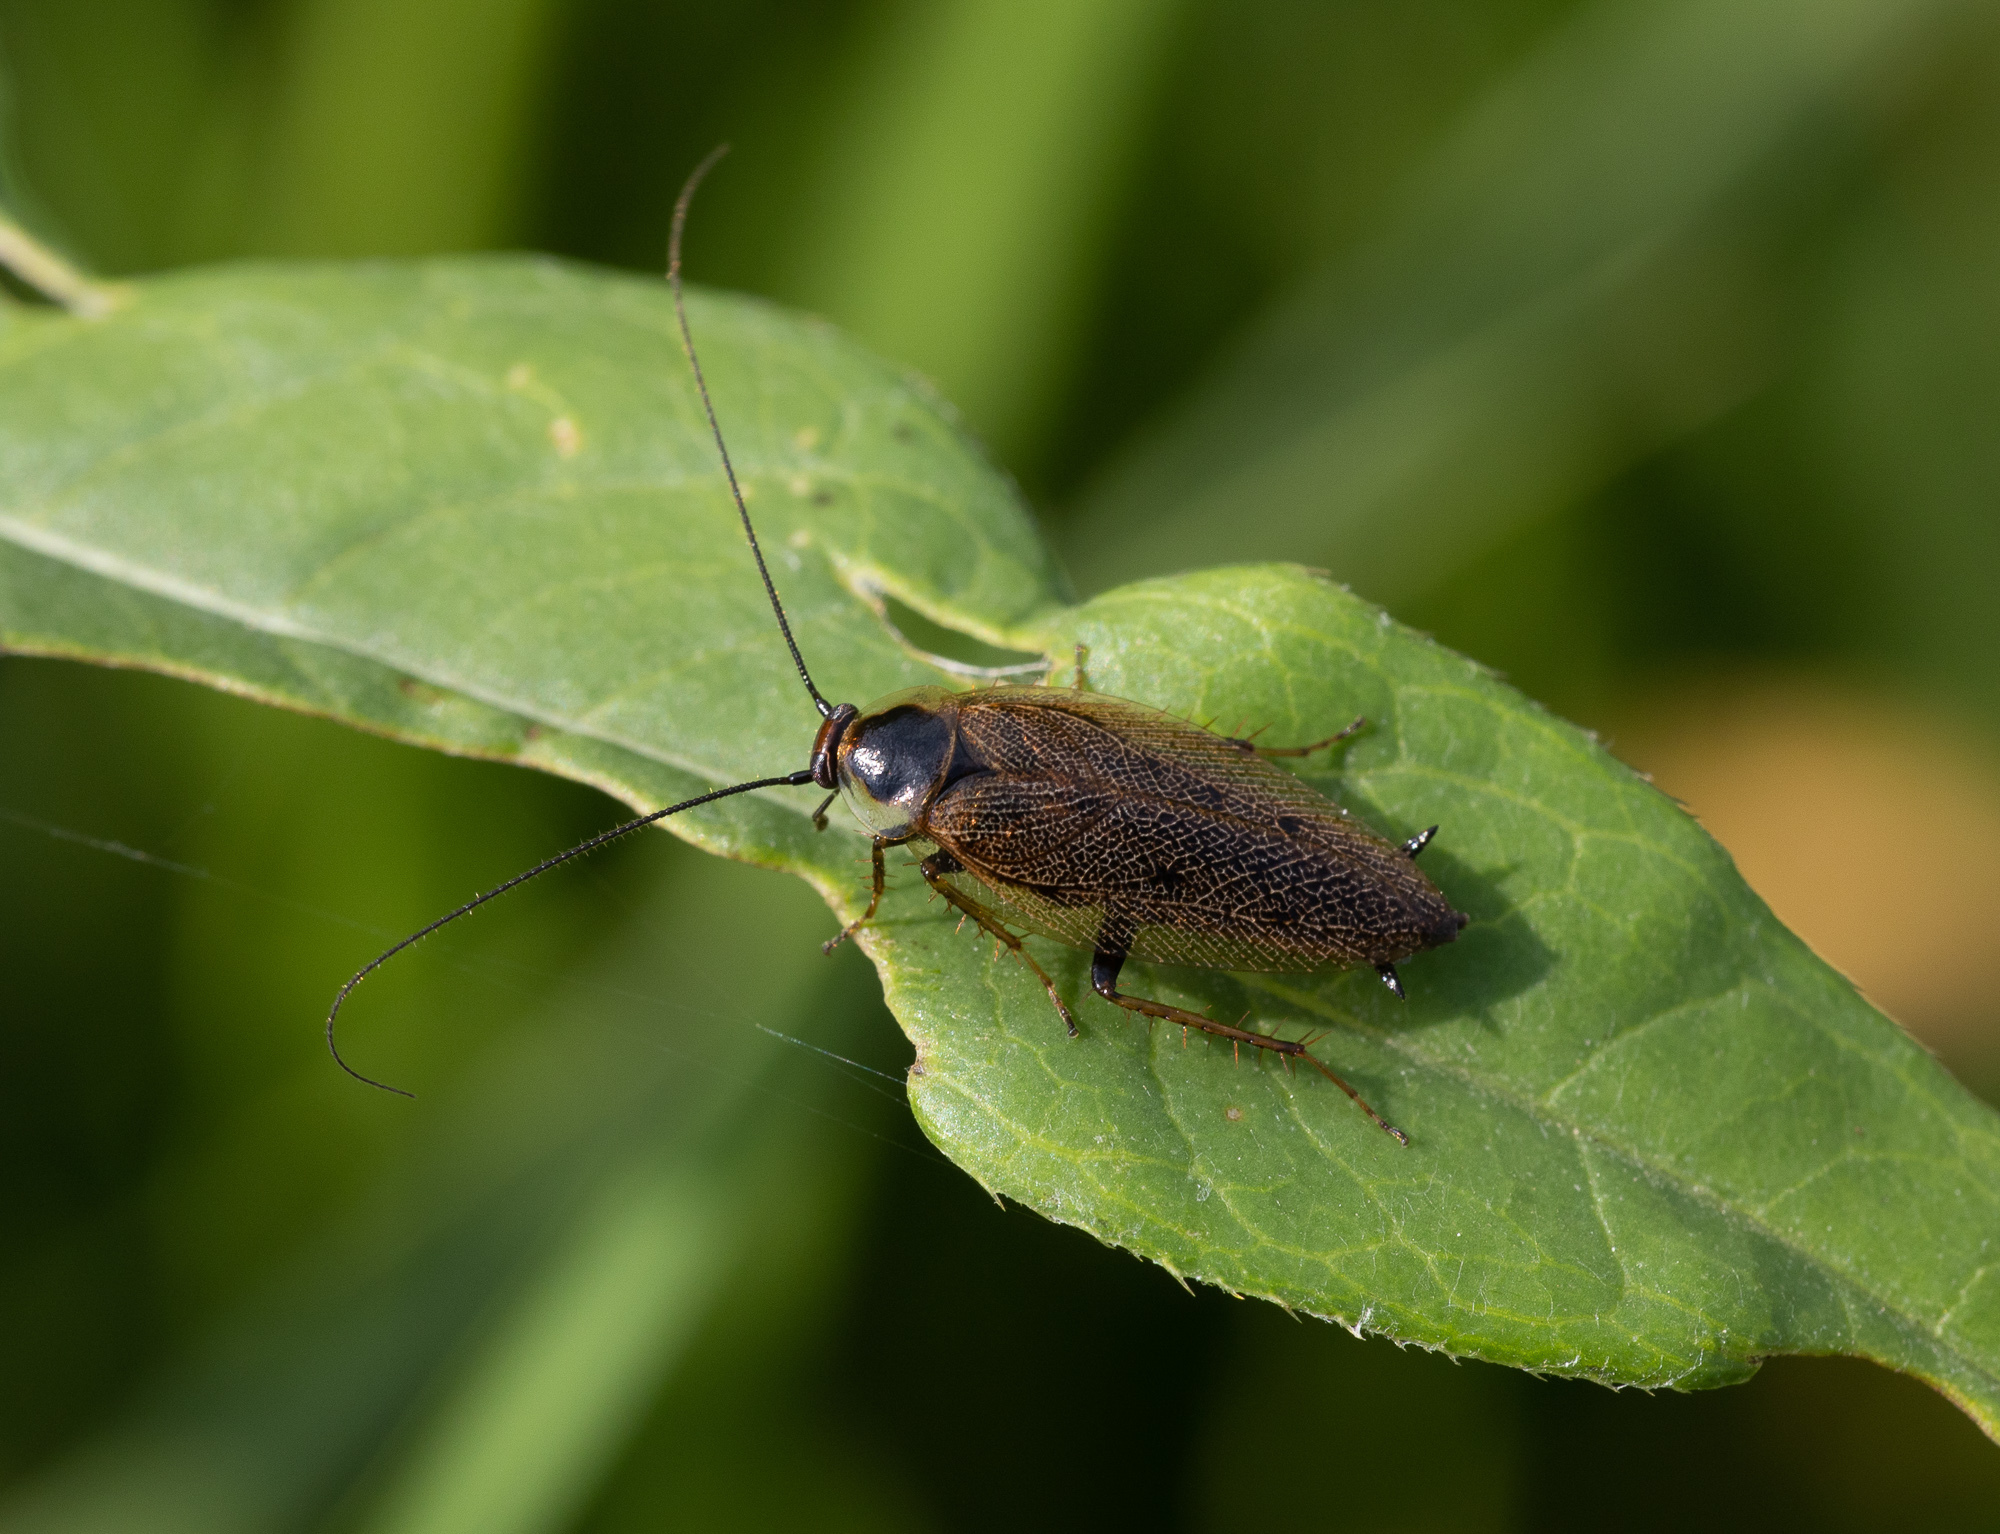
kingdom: Animalia
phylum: Arthropoda
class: Insecta
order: Blattodea
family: Ectobiidae
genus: Ectobius
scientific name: Ectobius lapponicus
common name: Dusky cockroach
